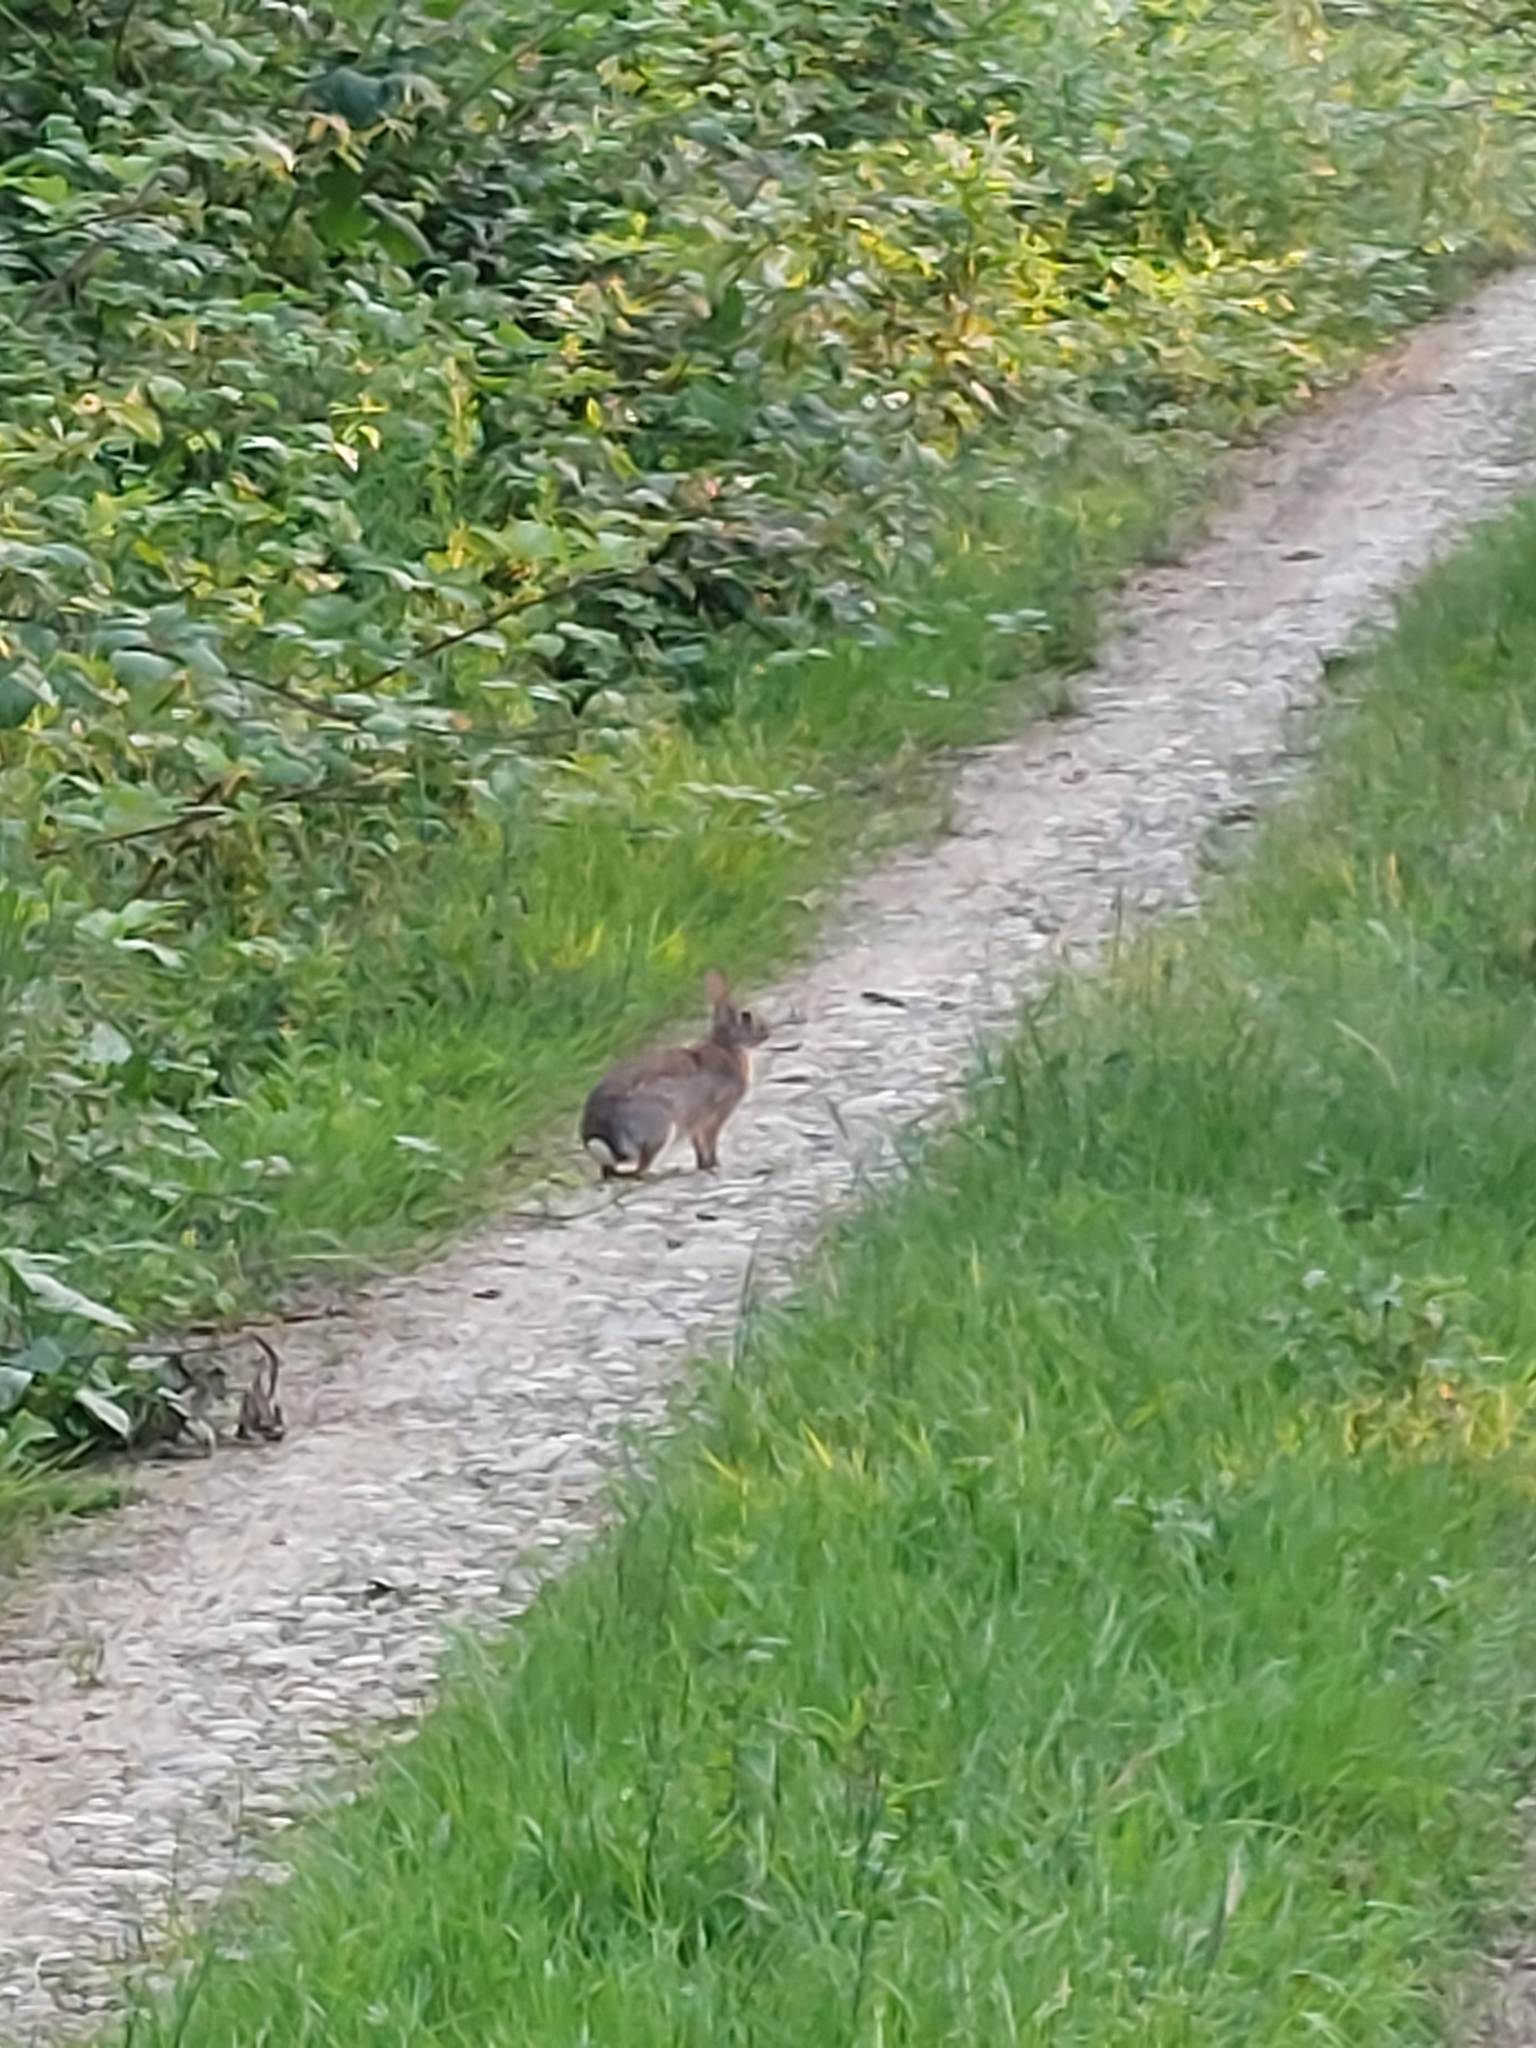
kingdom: Animalia
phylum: Chordata
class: Mammalia
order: Lagomorpha
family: Leporidae
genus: Sylvilagus
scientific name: Sylvilagus floridanus
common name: Eastern cottontail
